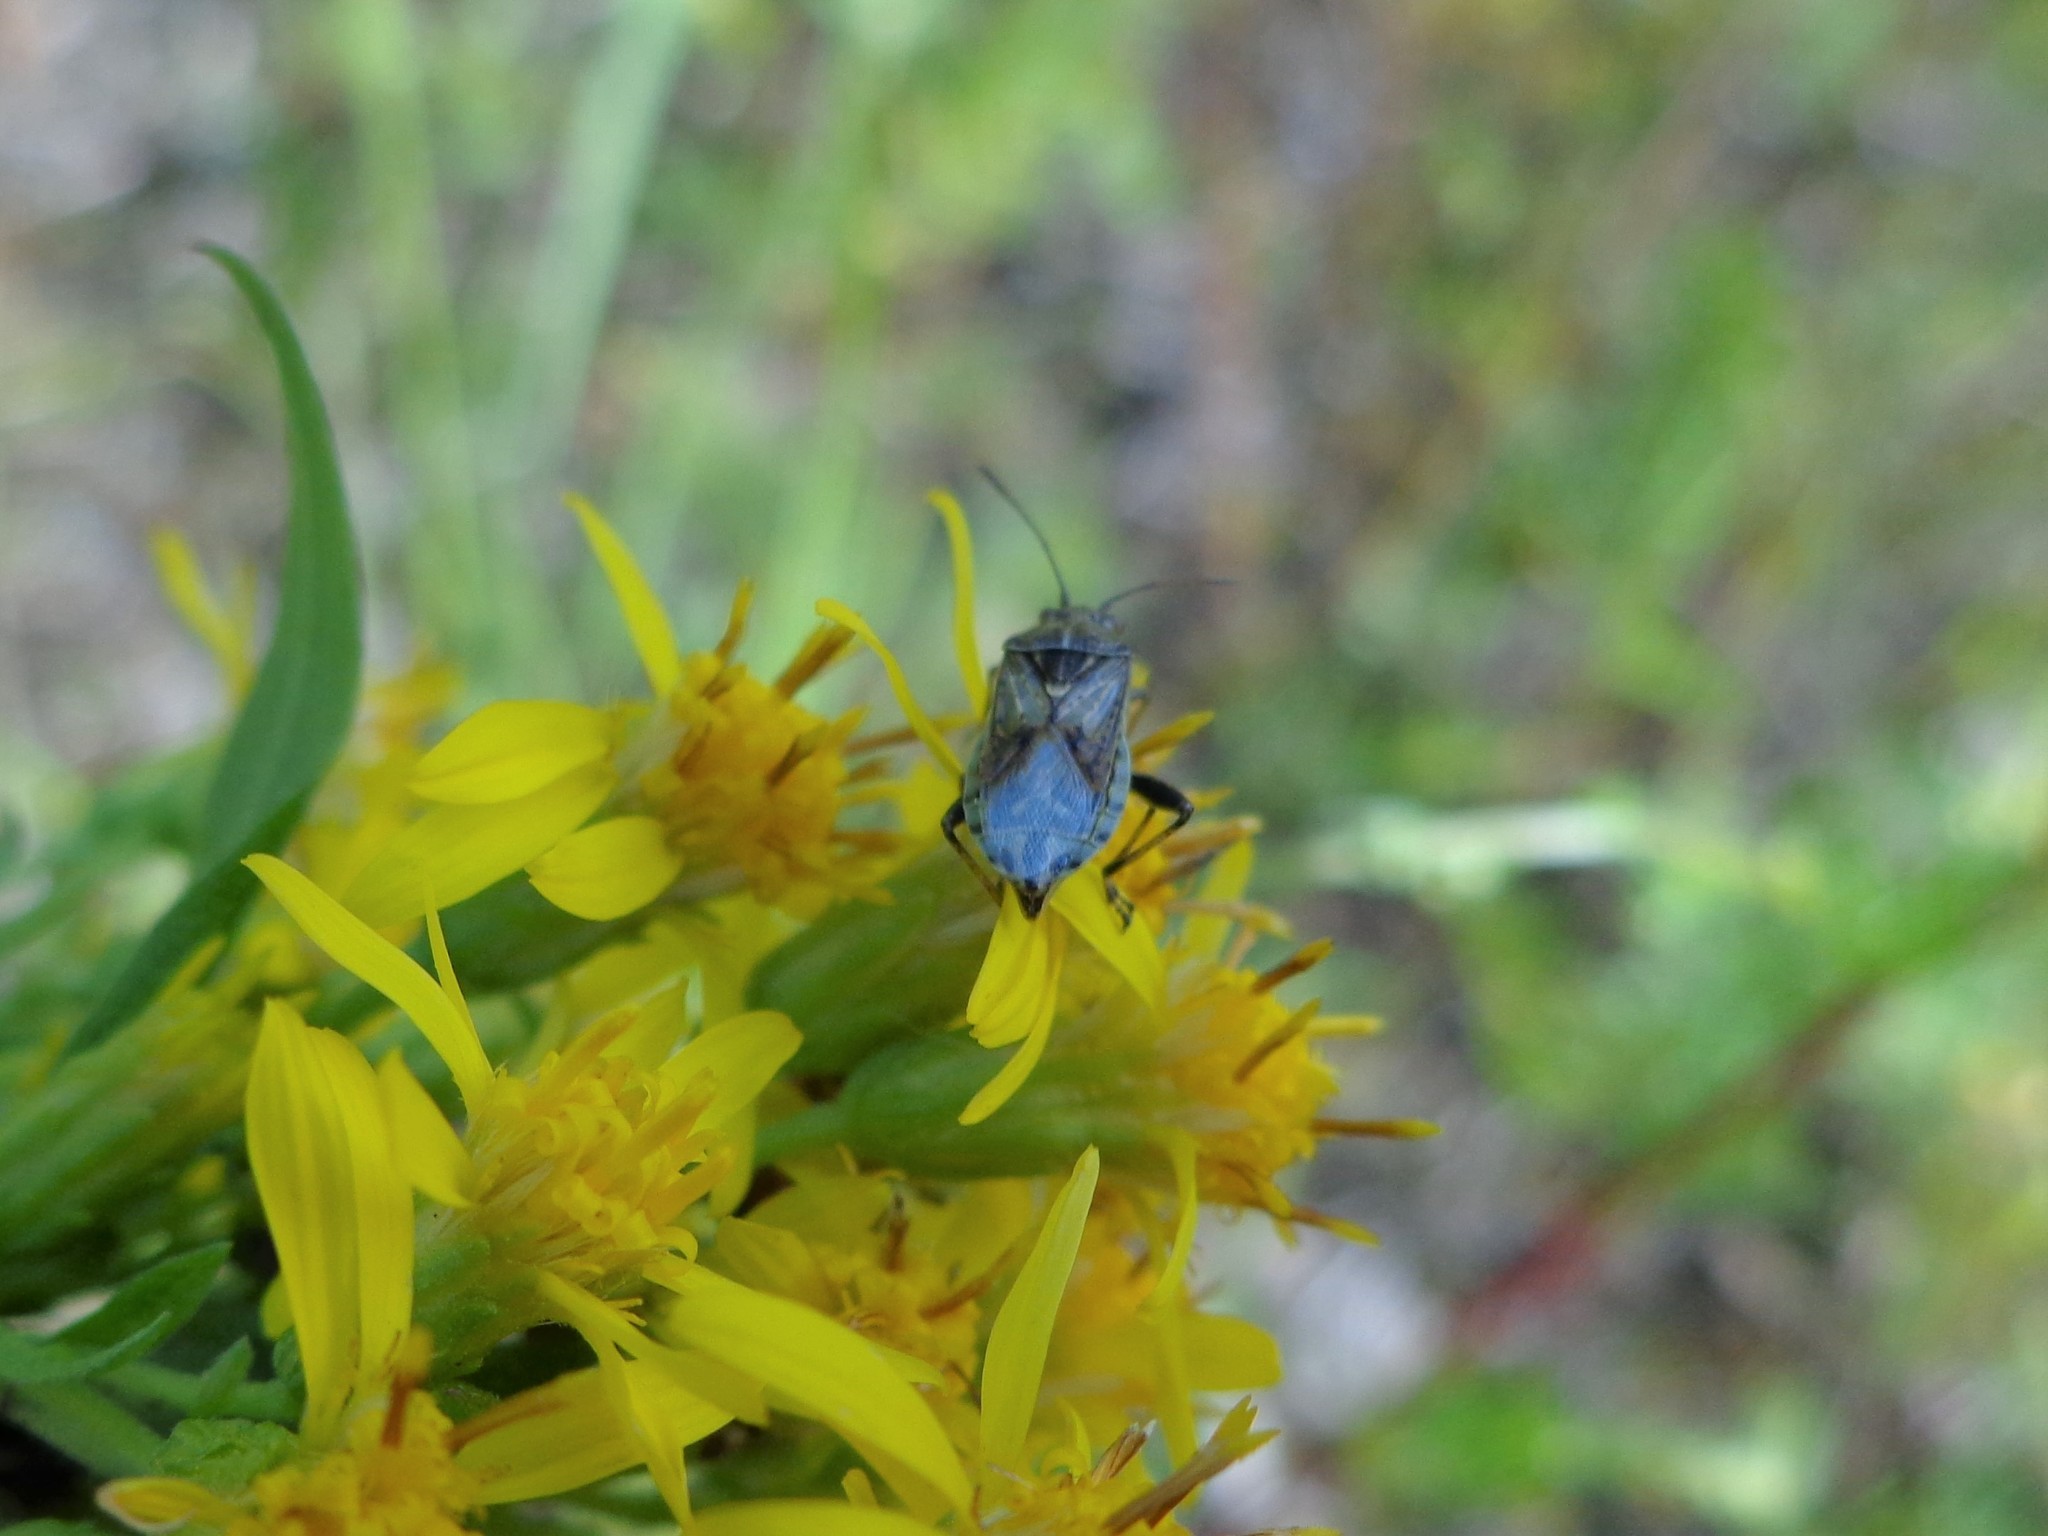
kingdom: Animalia
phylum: Arthropoda
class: Insecta
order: Hemiptera
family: Rhopalidae
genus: Stictopleurus
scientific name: Stictopleurus punctatonervosus
